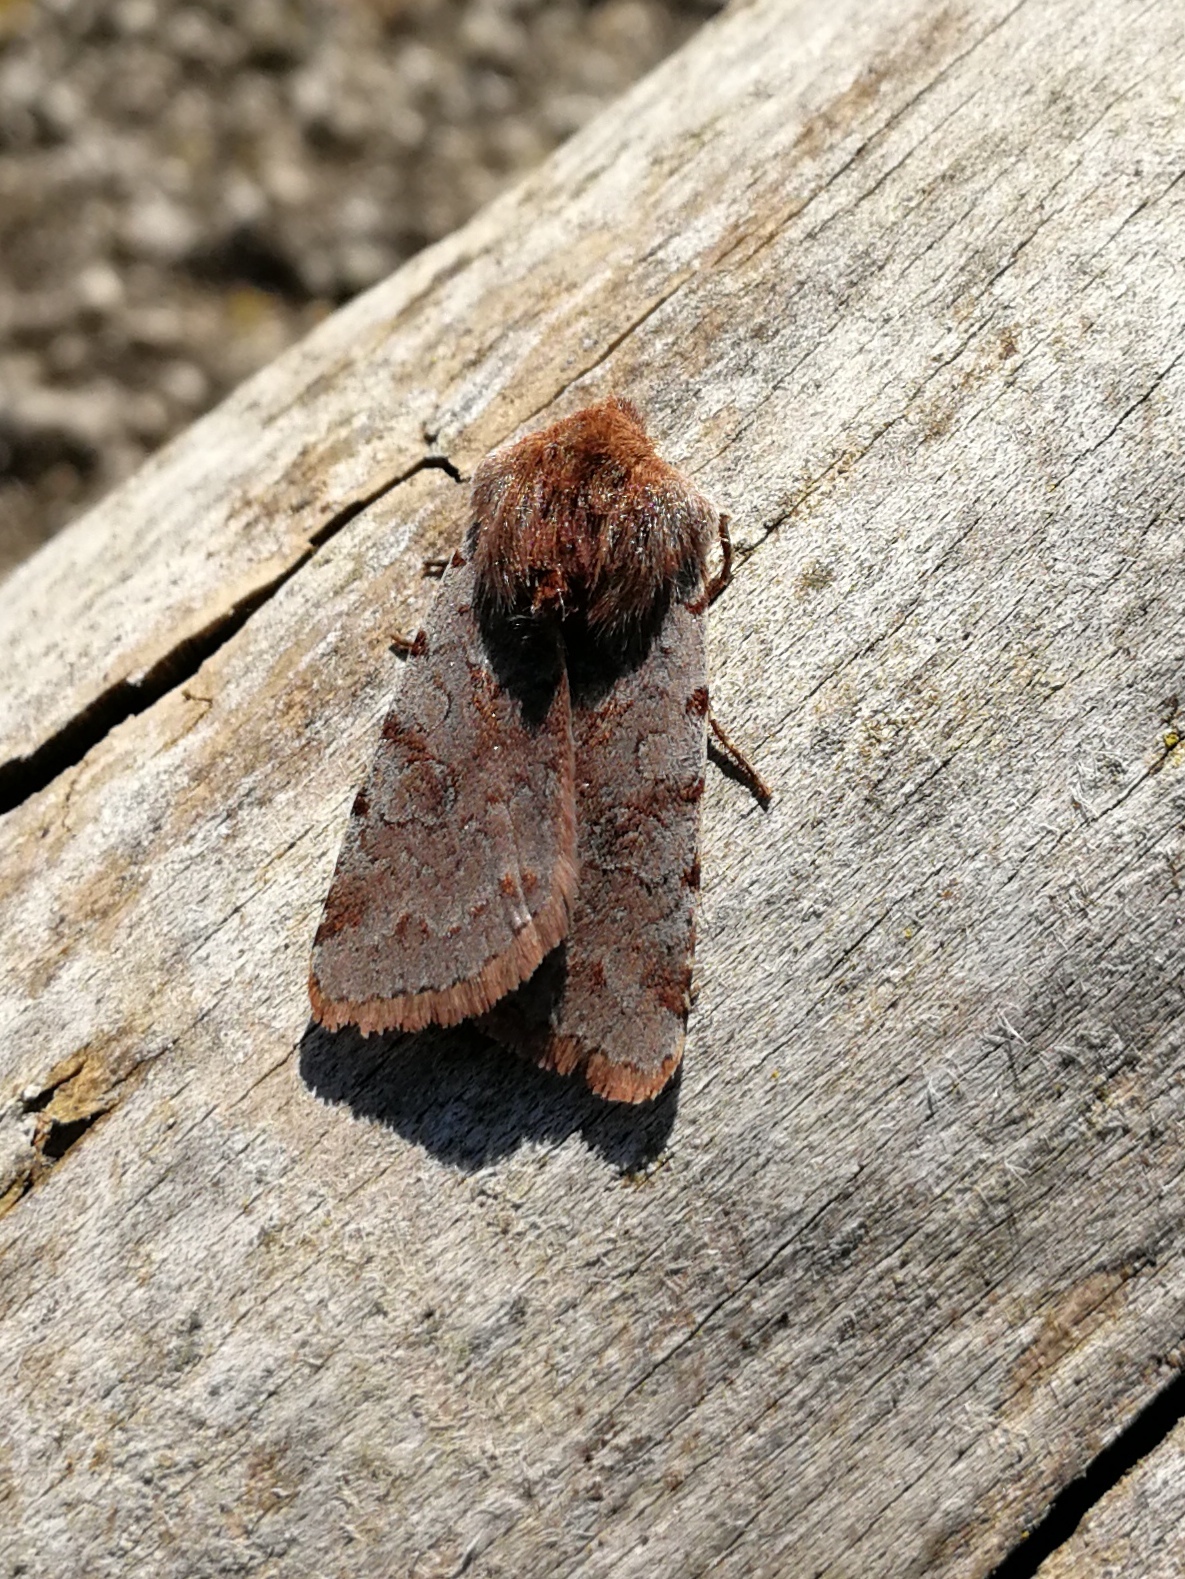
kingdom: Animalia
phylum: Arthropoda
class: Insecta
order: Lepidoptera
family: Noctuidae
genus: Cerastis
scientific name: Cerastis rubricosa
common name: Red chestnut
